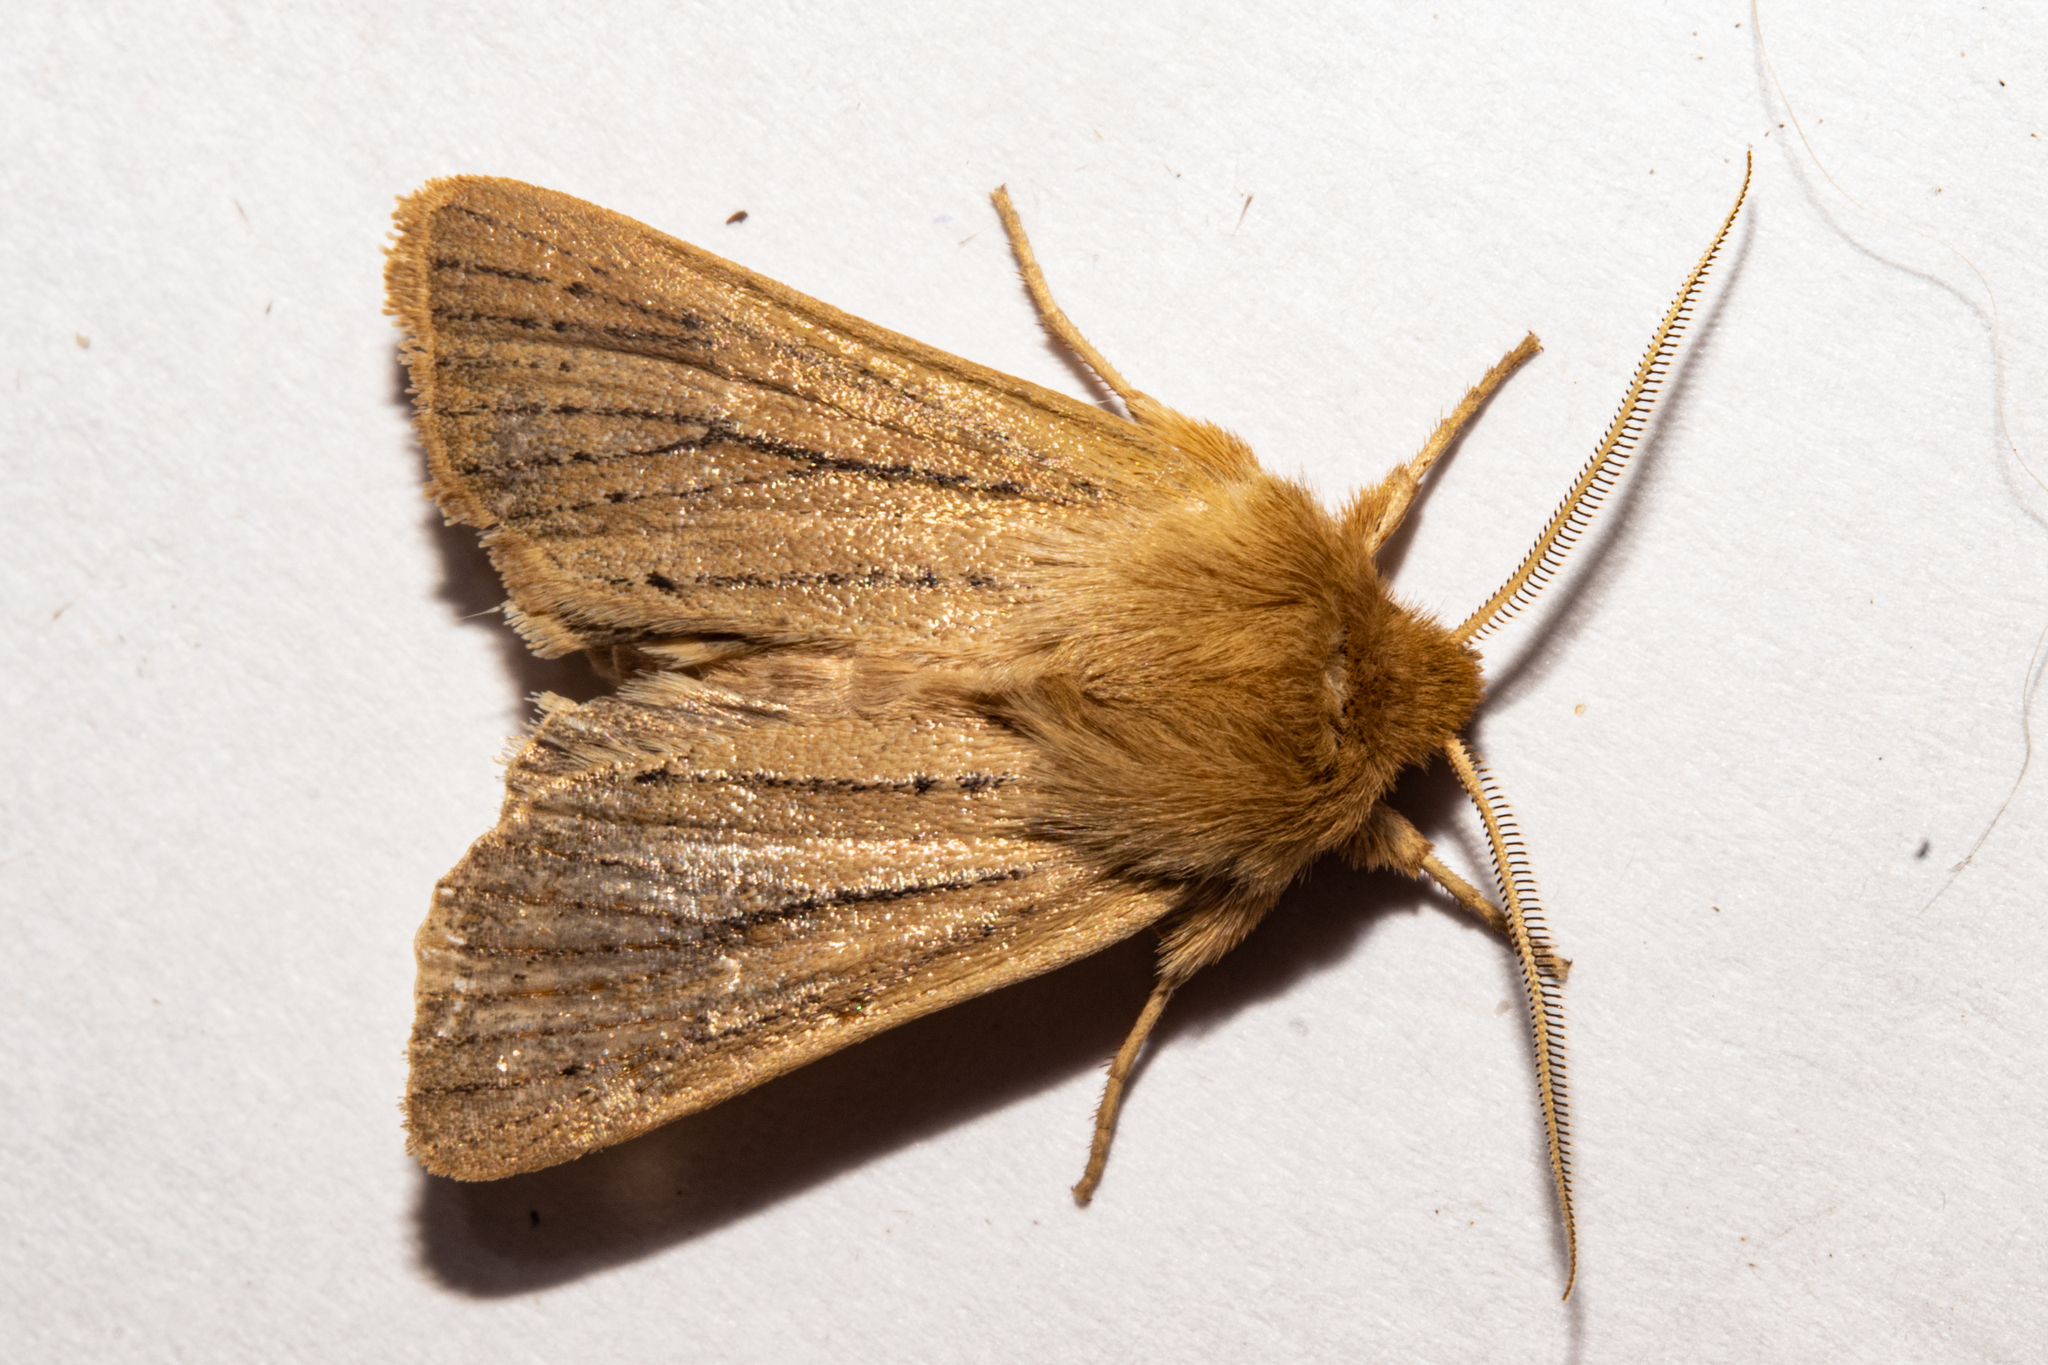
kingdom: Animalia
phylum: Arthropoda
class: Insecta
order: Lepidoptera
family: Noctuidae
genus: Ichneutica
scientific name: Ichneutica
